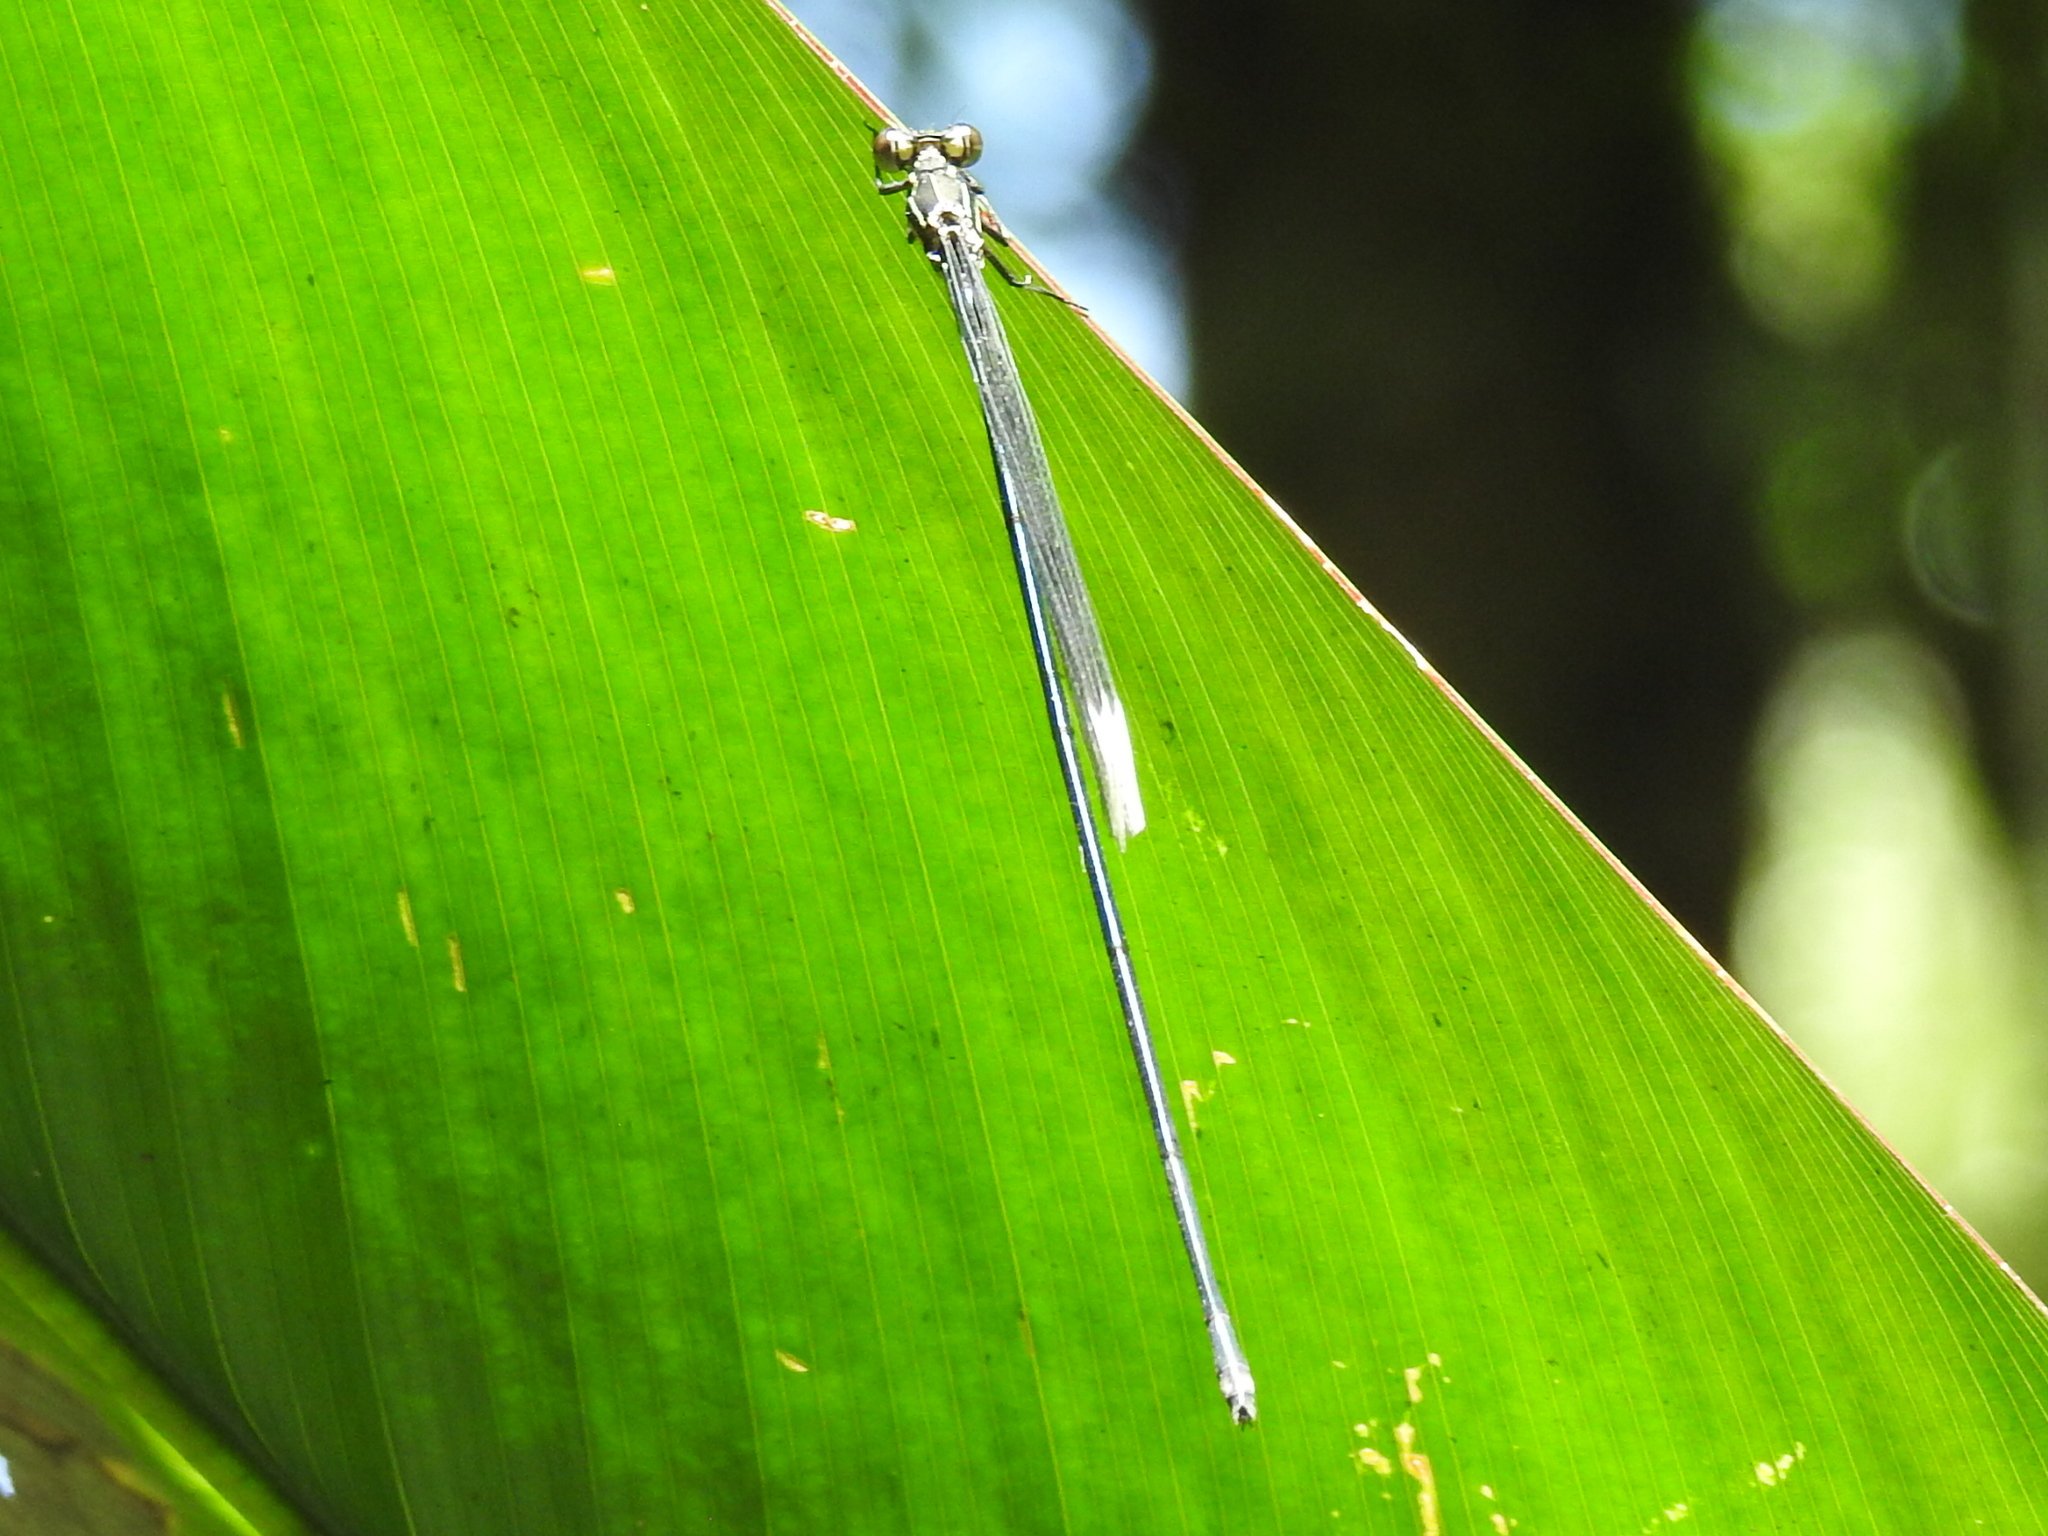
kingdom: Animalia
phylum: Arthropoda
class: Insecta
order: Odonata
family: Coenagrionidae
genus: Mecistogaster
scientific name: Mecistogaster modesta
